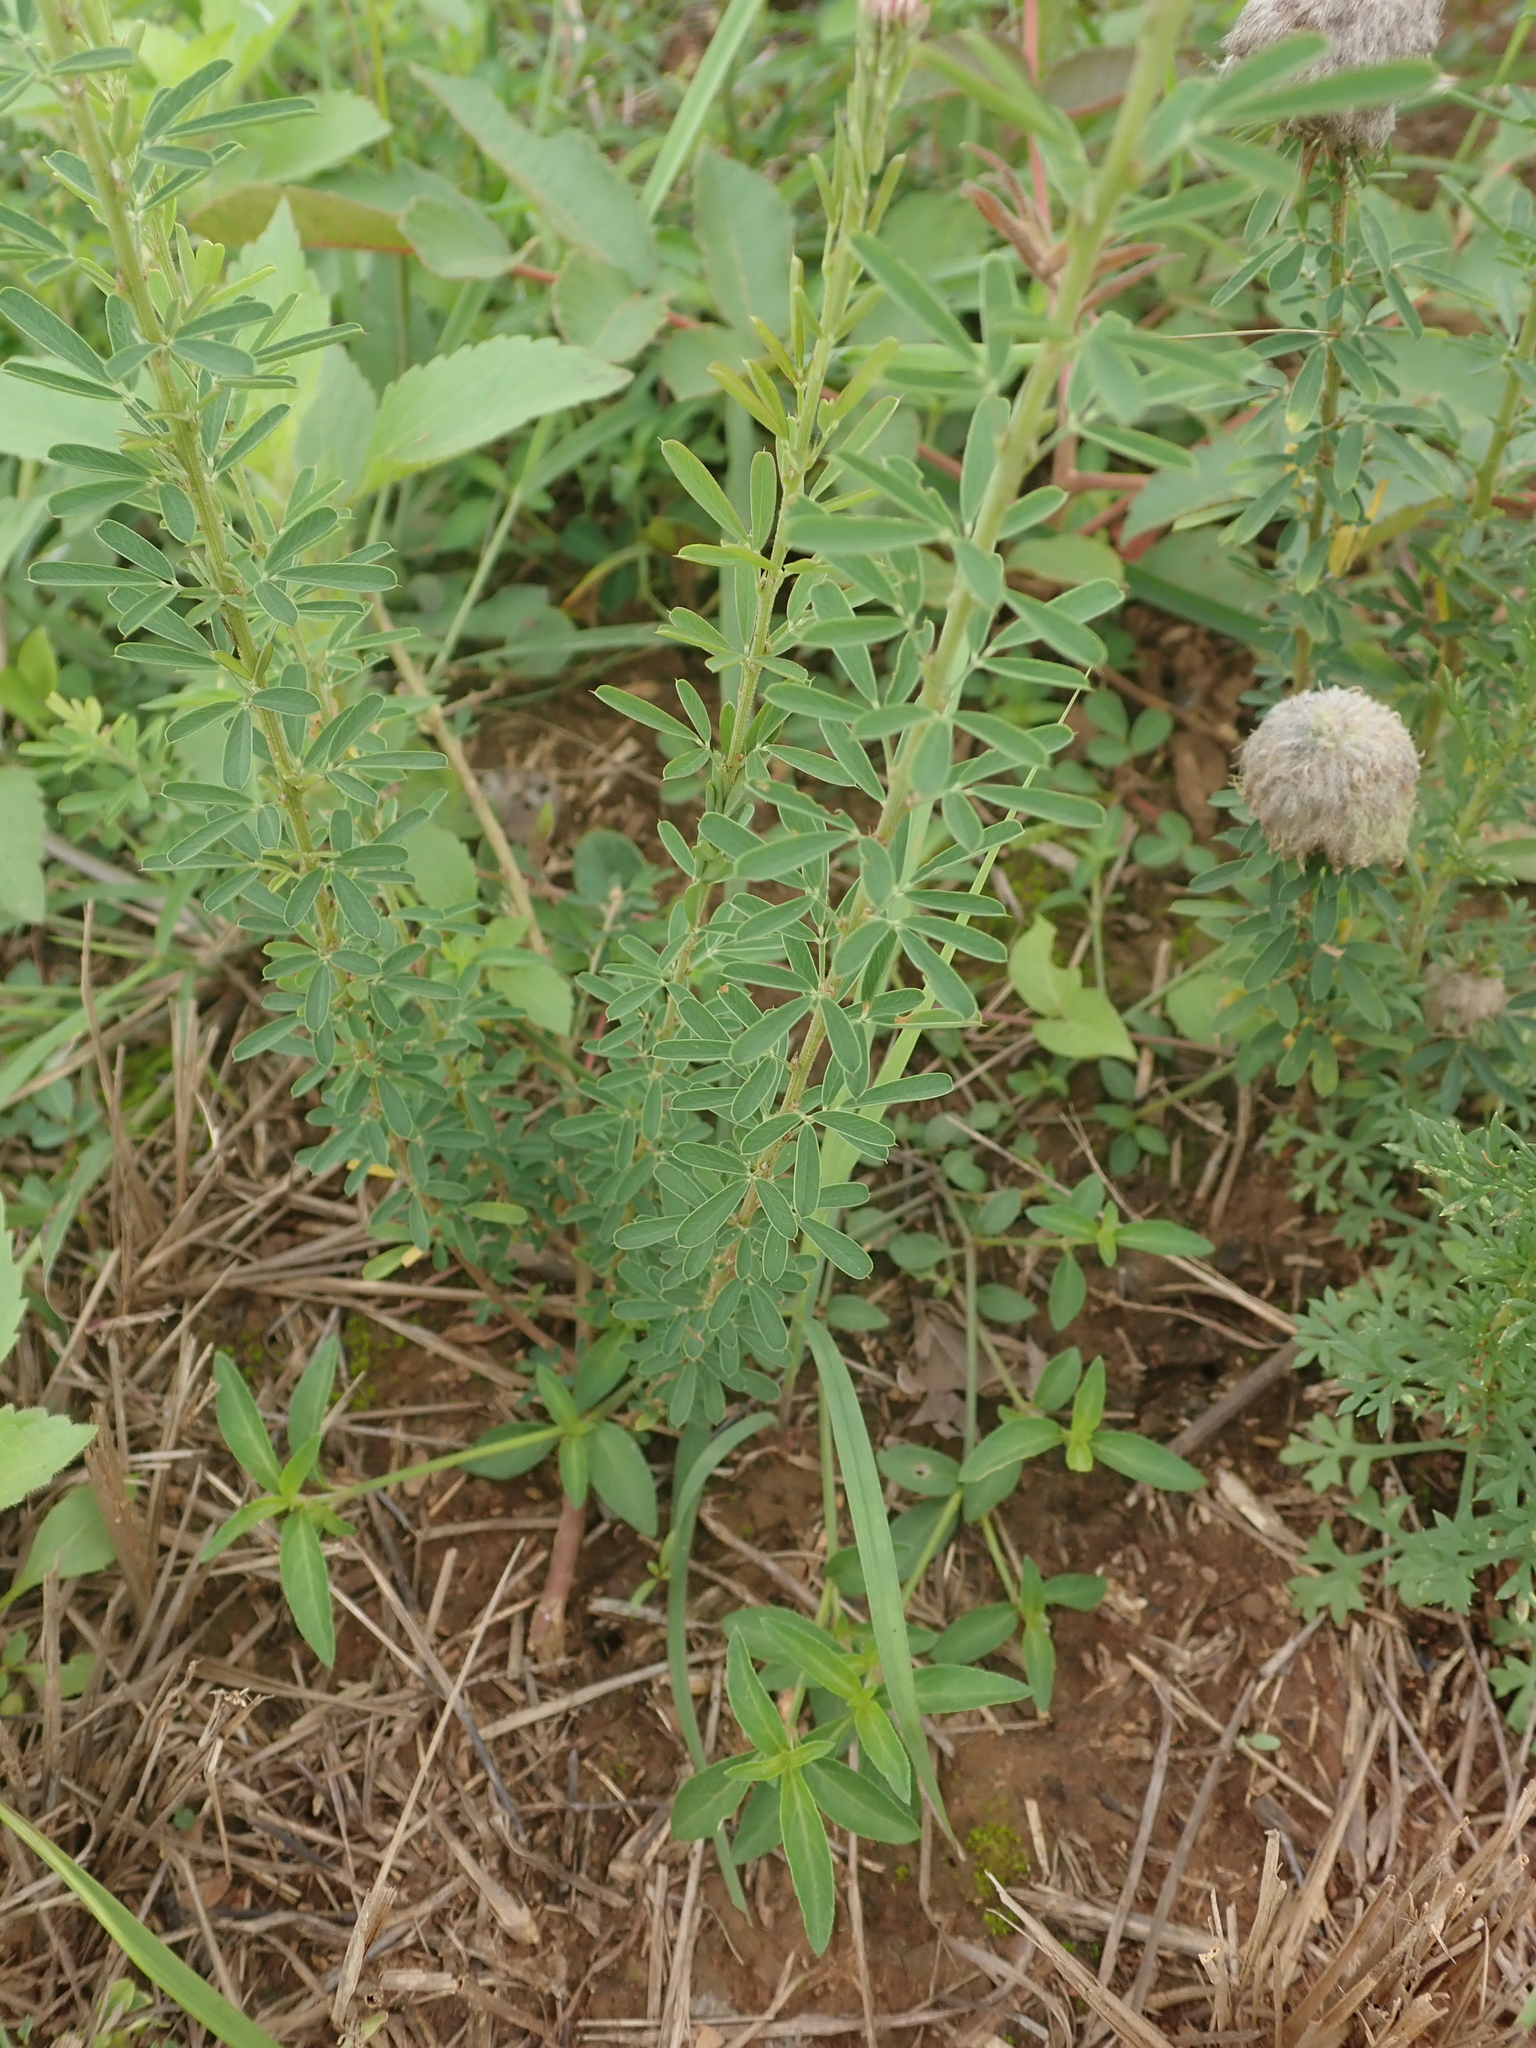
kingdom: Plantae
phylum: Tracheophyta
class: Magnoliopsida
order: Fabales
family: Fabaceae
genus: Lespedeza
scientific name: Lespedeza cuneata
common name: Chinese bush-clover
